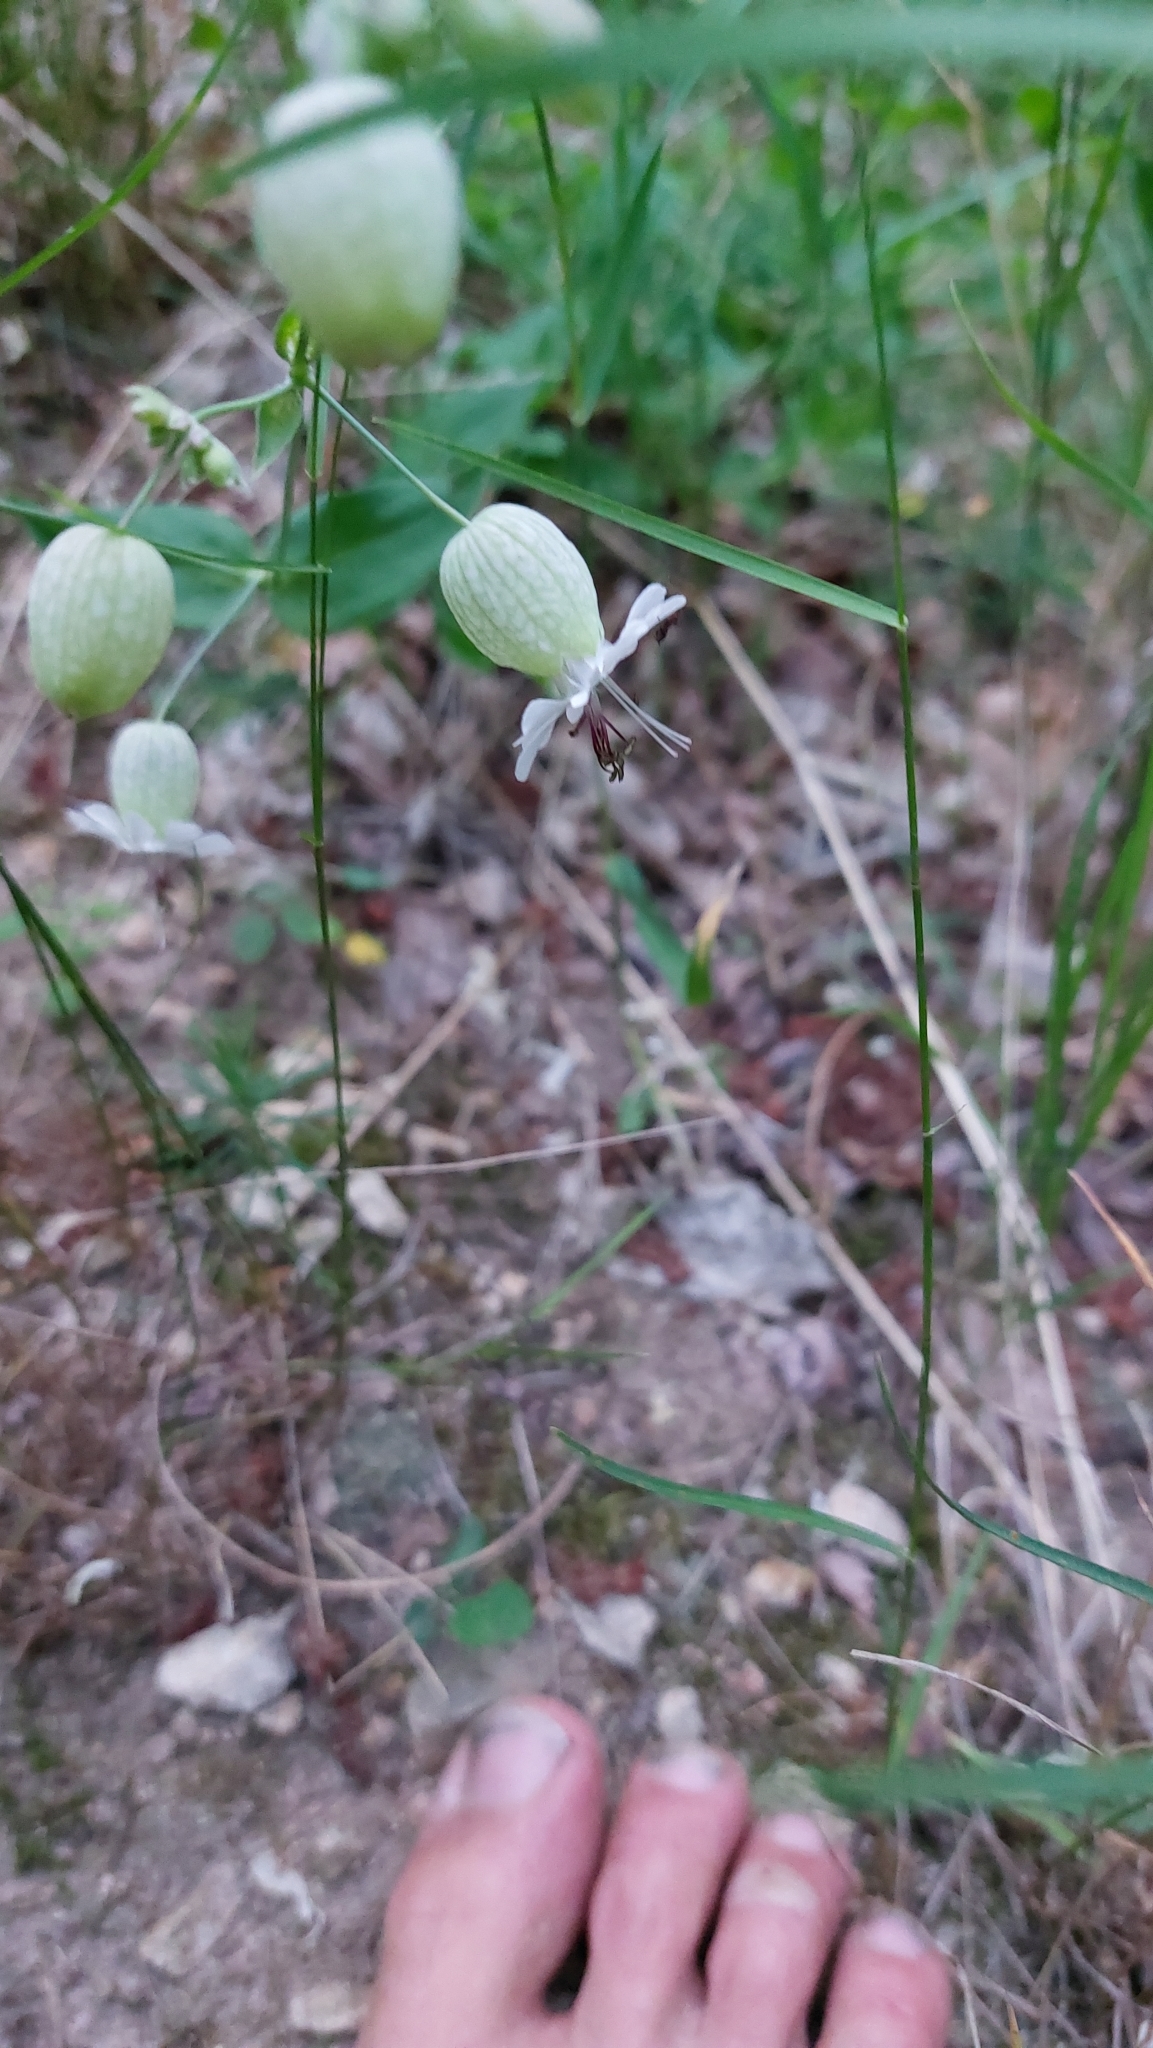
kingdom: Plantae
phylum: Tracheophyta
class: Magnoliopsida
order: Caryophyllales
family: Caryophyllaceae
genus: Silene
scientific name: Silene vulgaris
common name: Bladder campion
